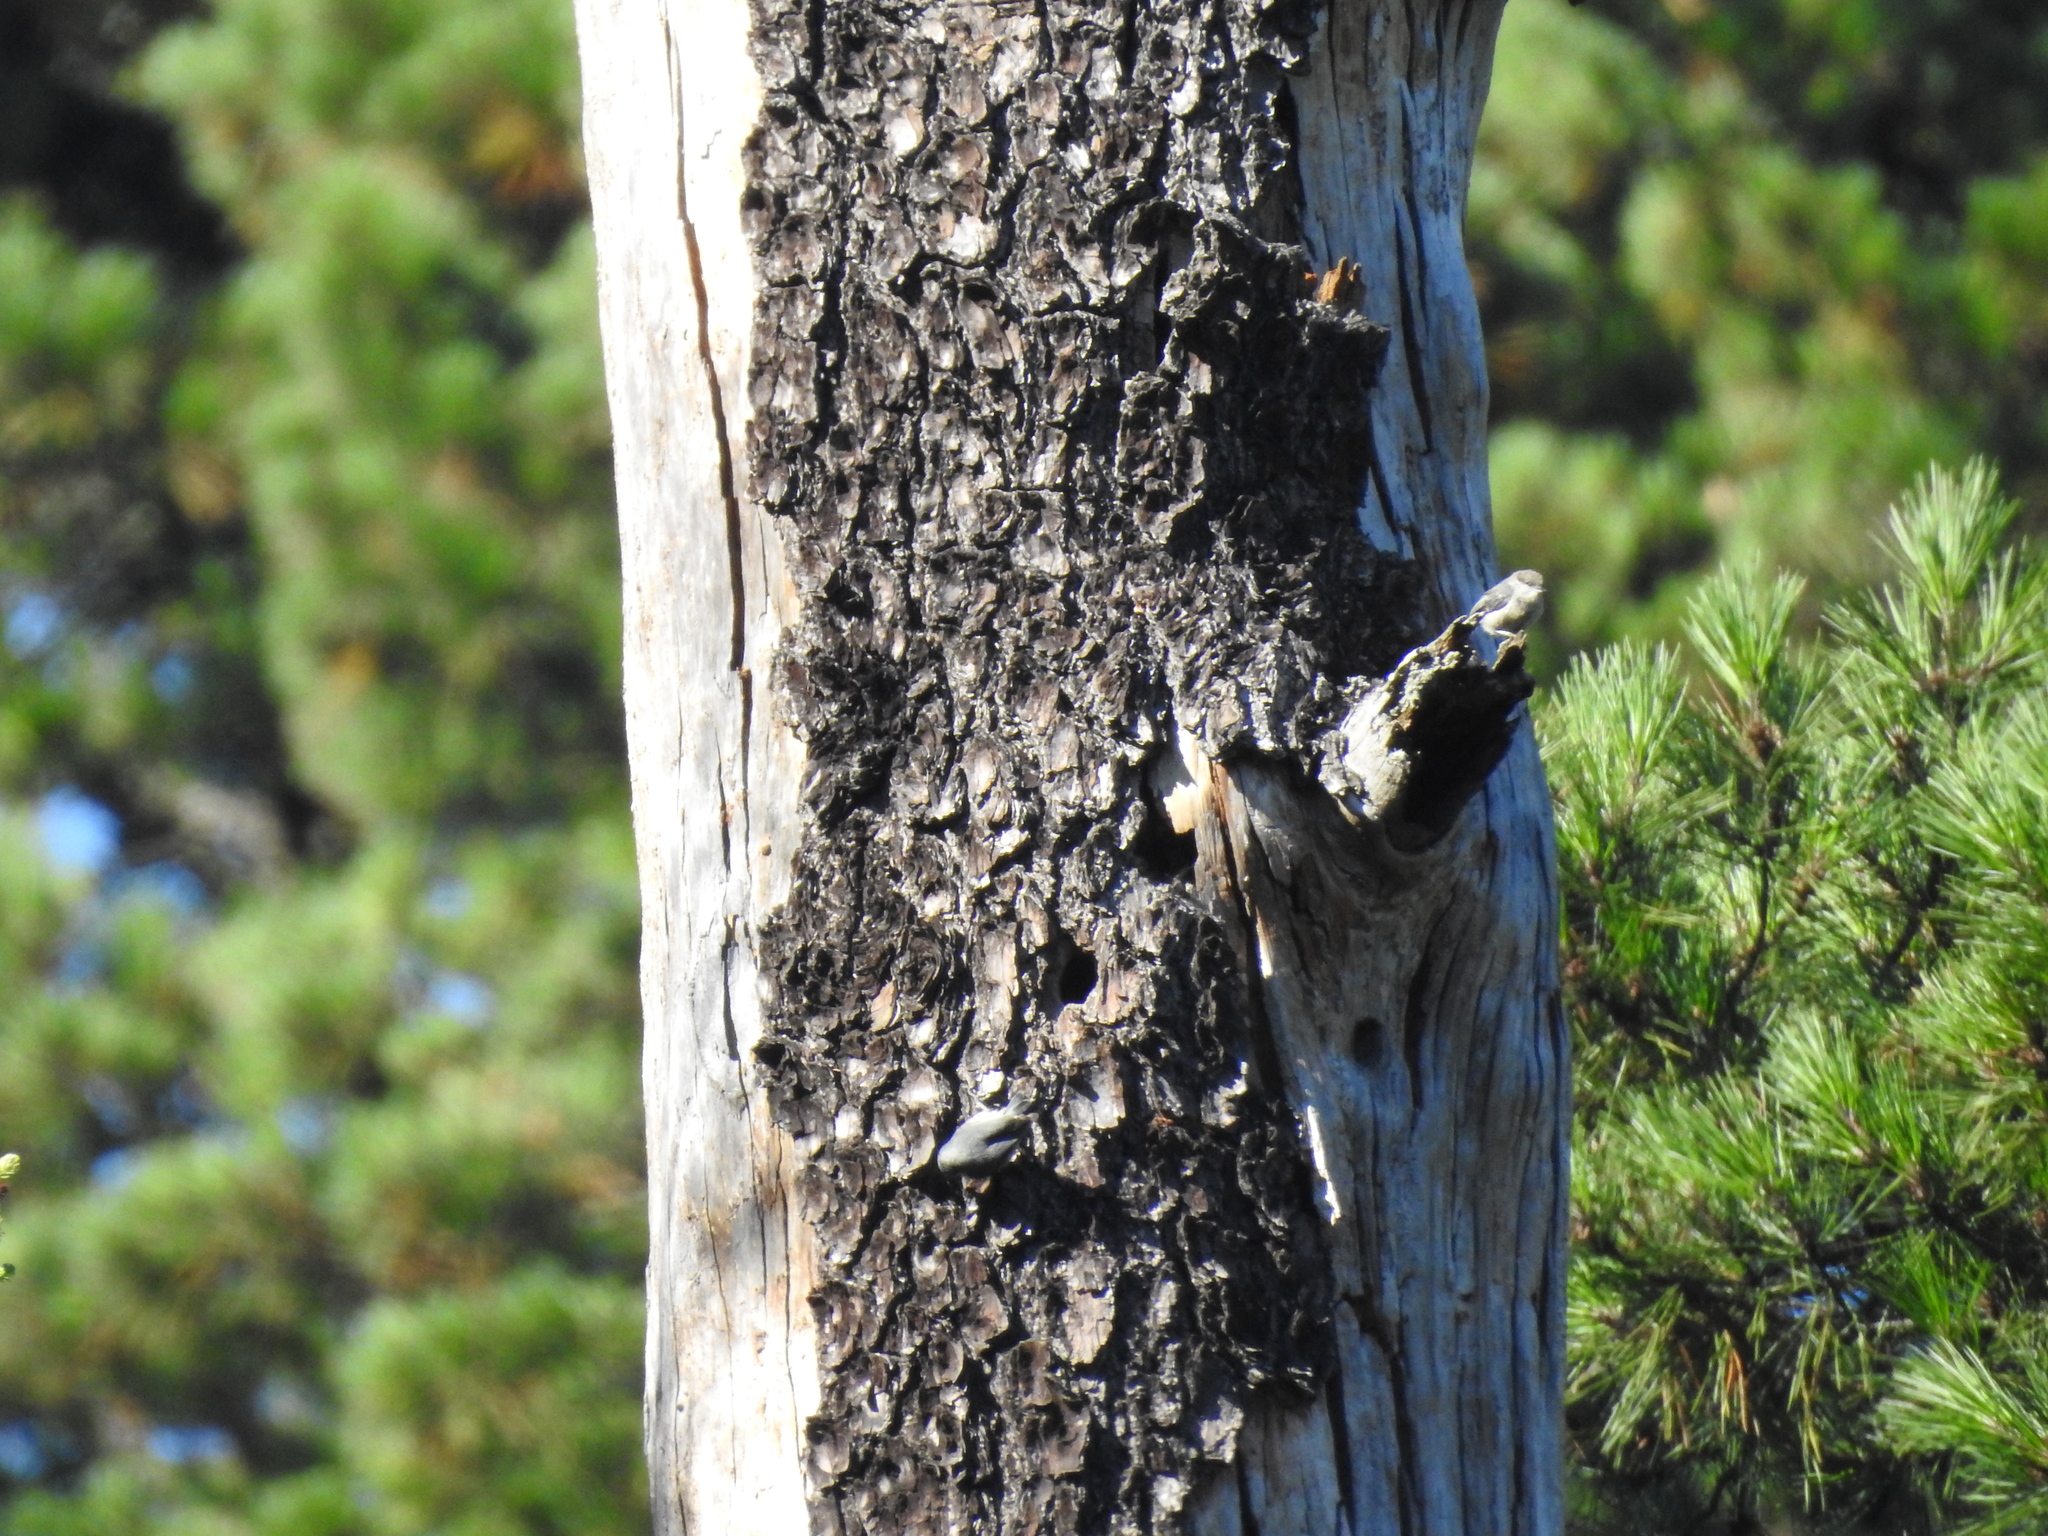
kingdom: Animalia
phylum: Chordata
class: Aves
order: Passeriformes
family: Sittidae
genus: Sitta
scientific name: Sitta pygmaea
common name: Pygmy nuthatch
